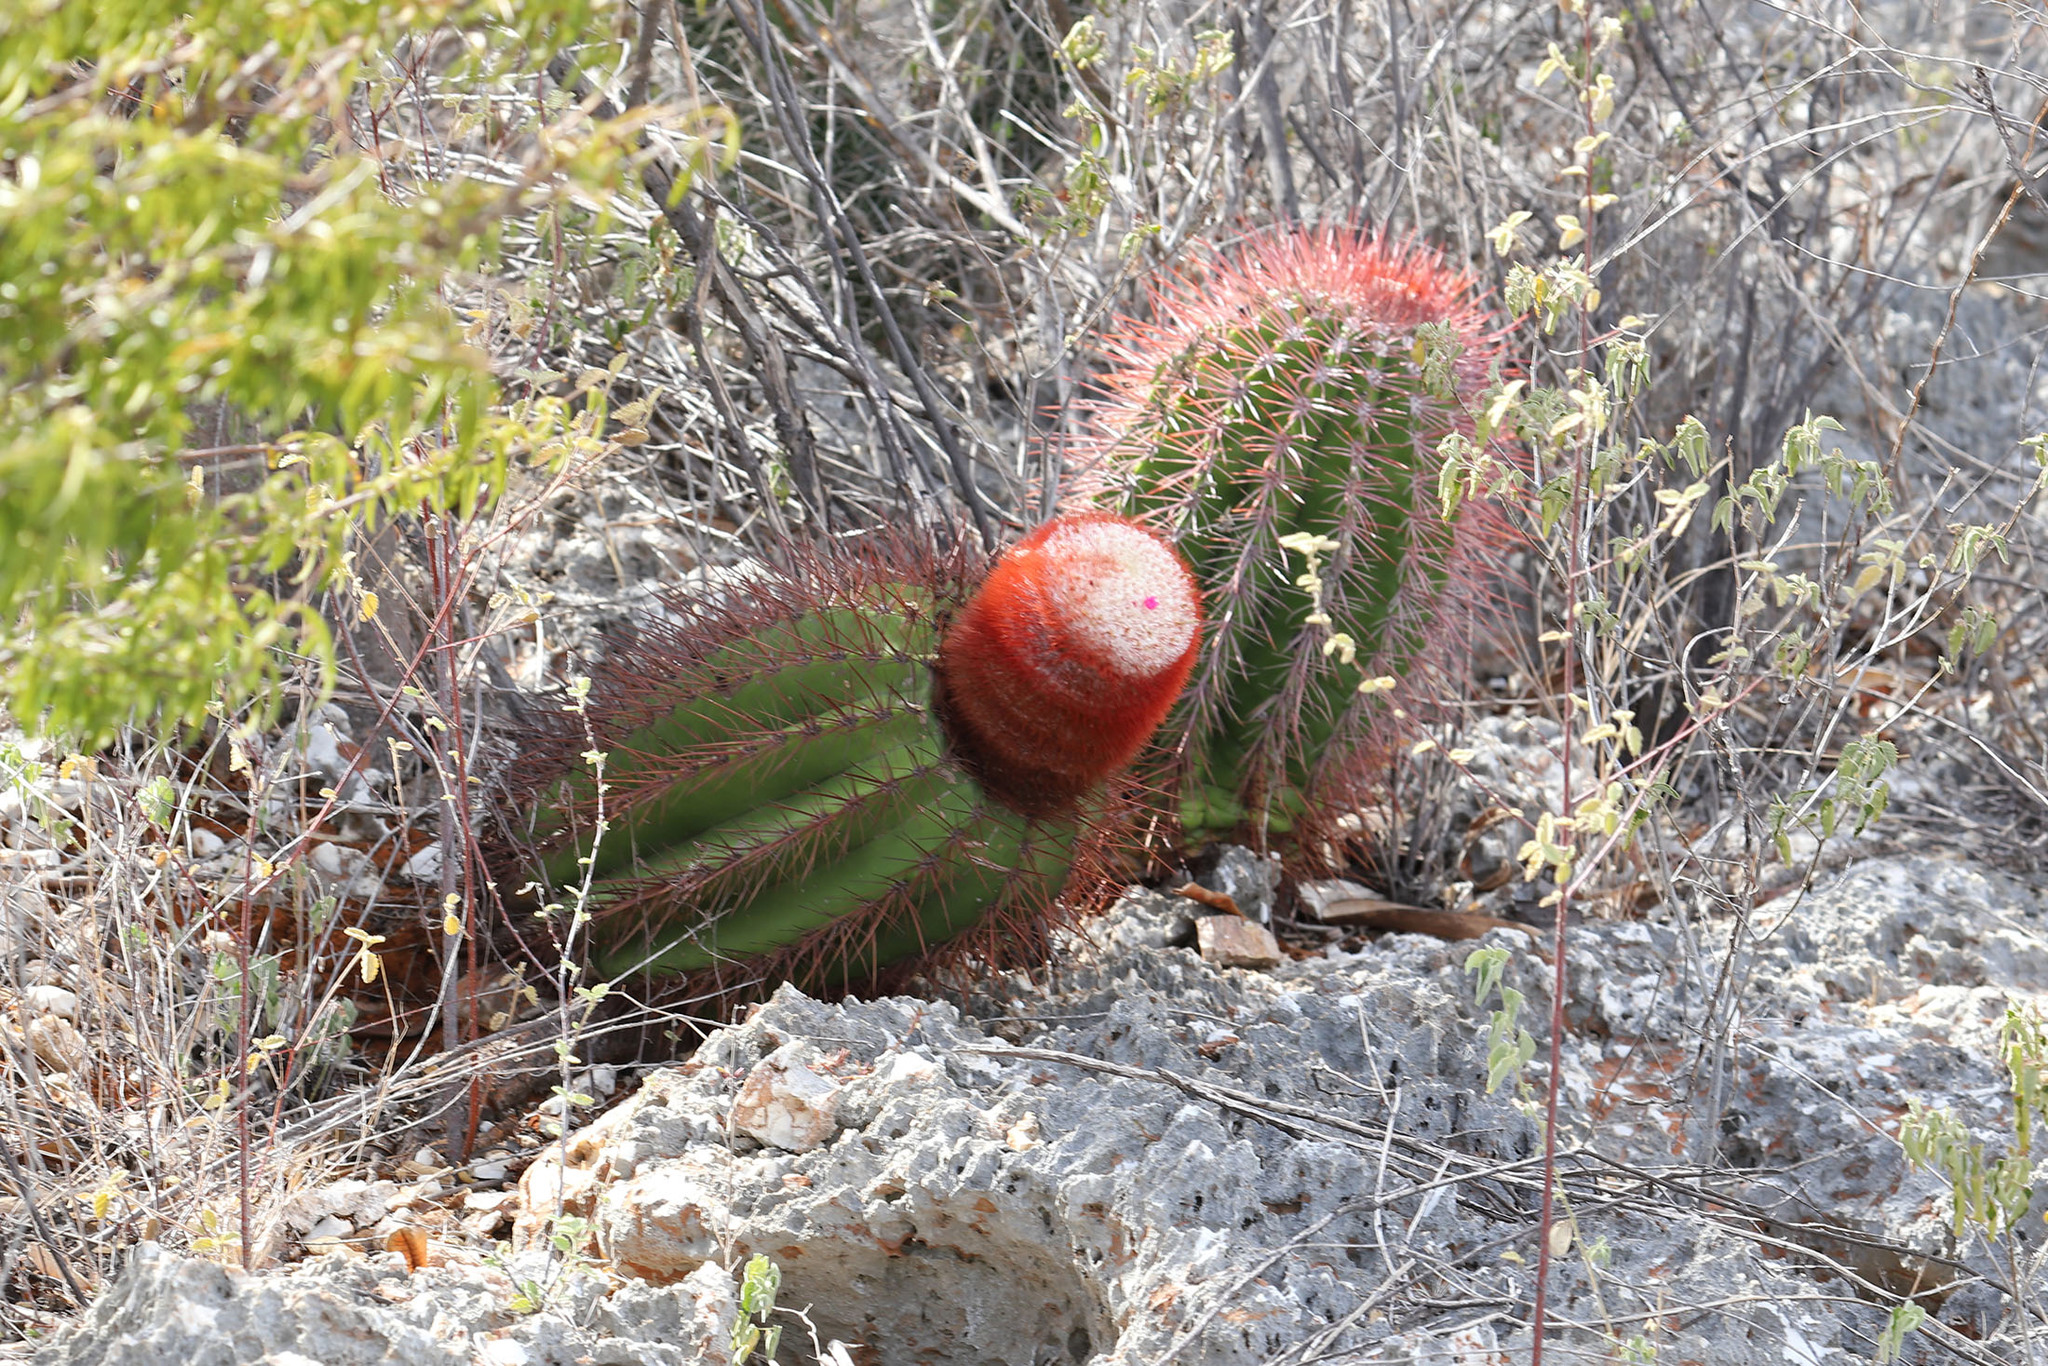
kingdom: Plantae
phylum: Tracheophyta
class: Magnoliopsida
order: Caryophyllales
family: Cactaceae
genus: Melocactus
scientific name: Melocactus pedernalensis
